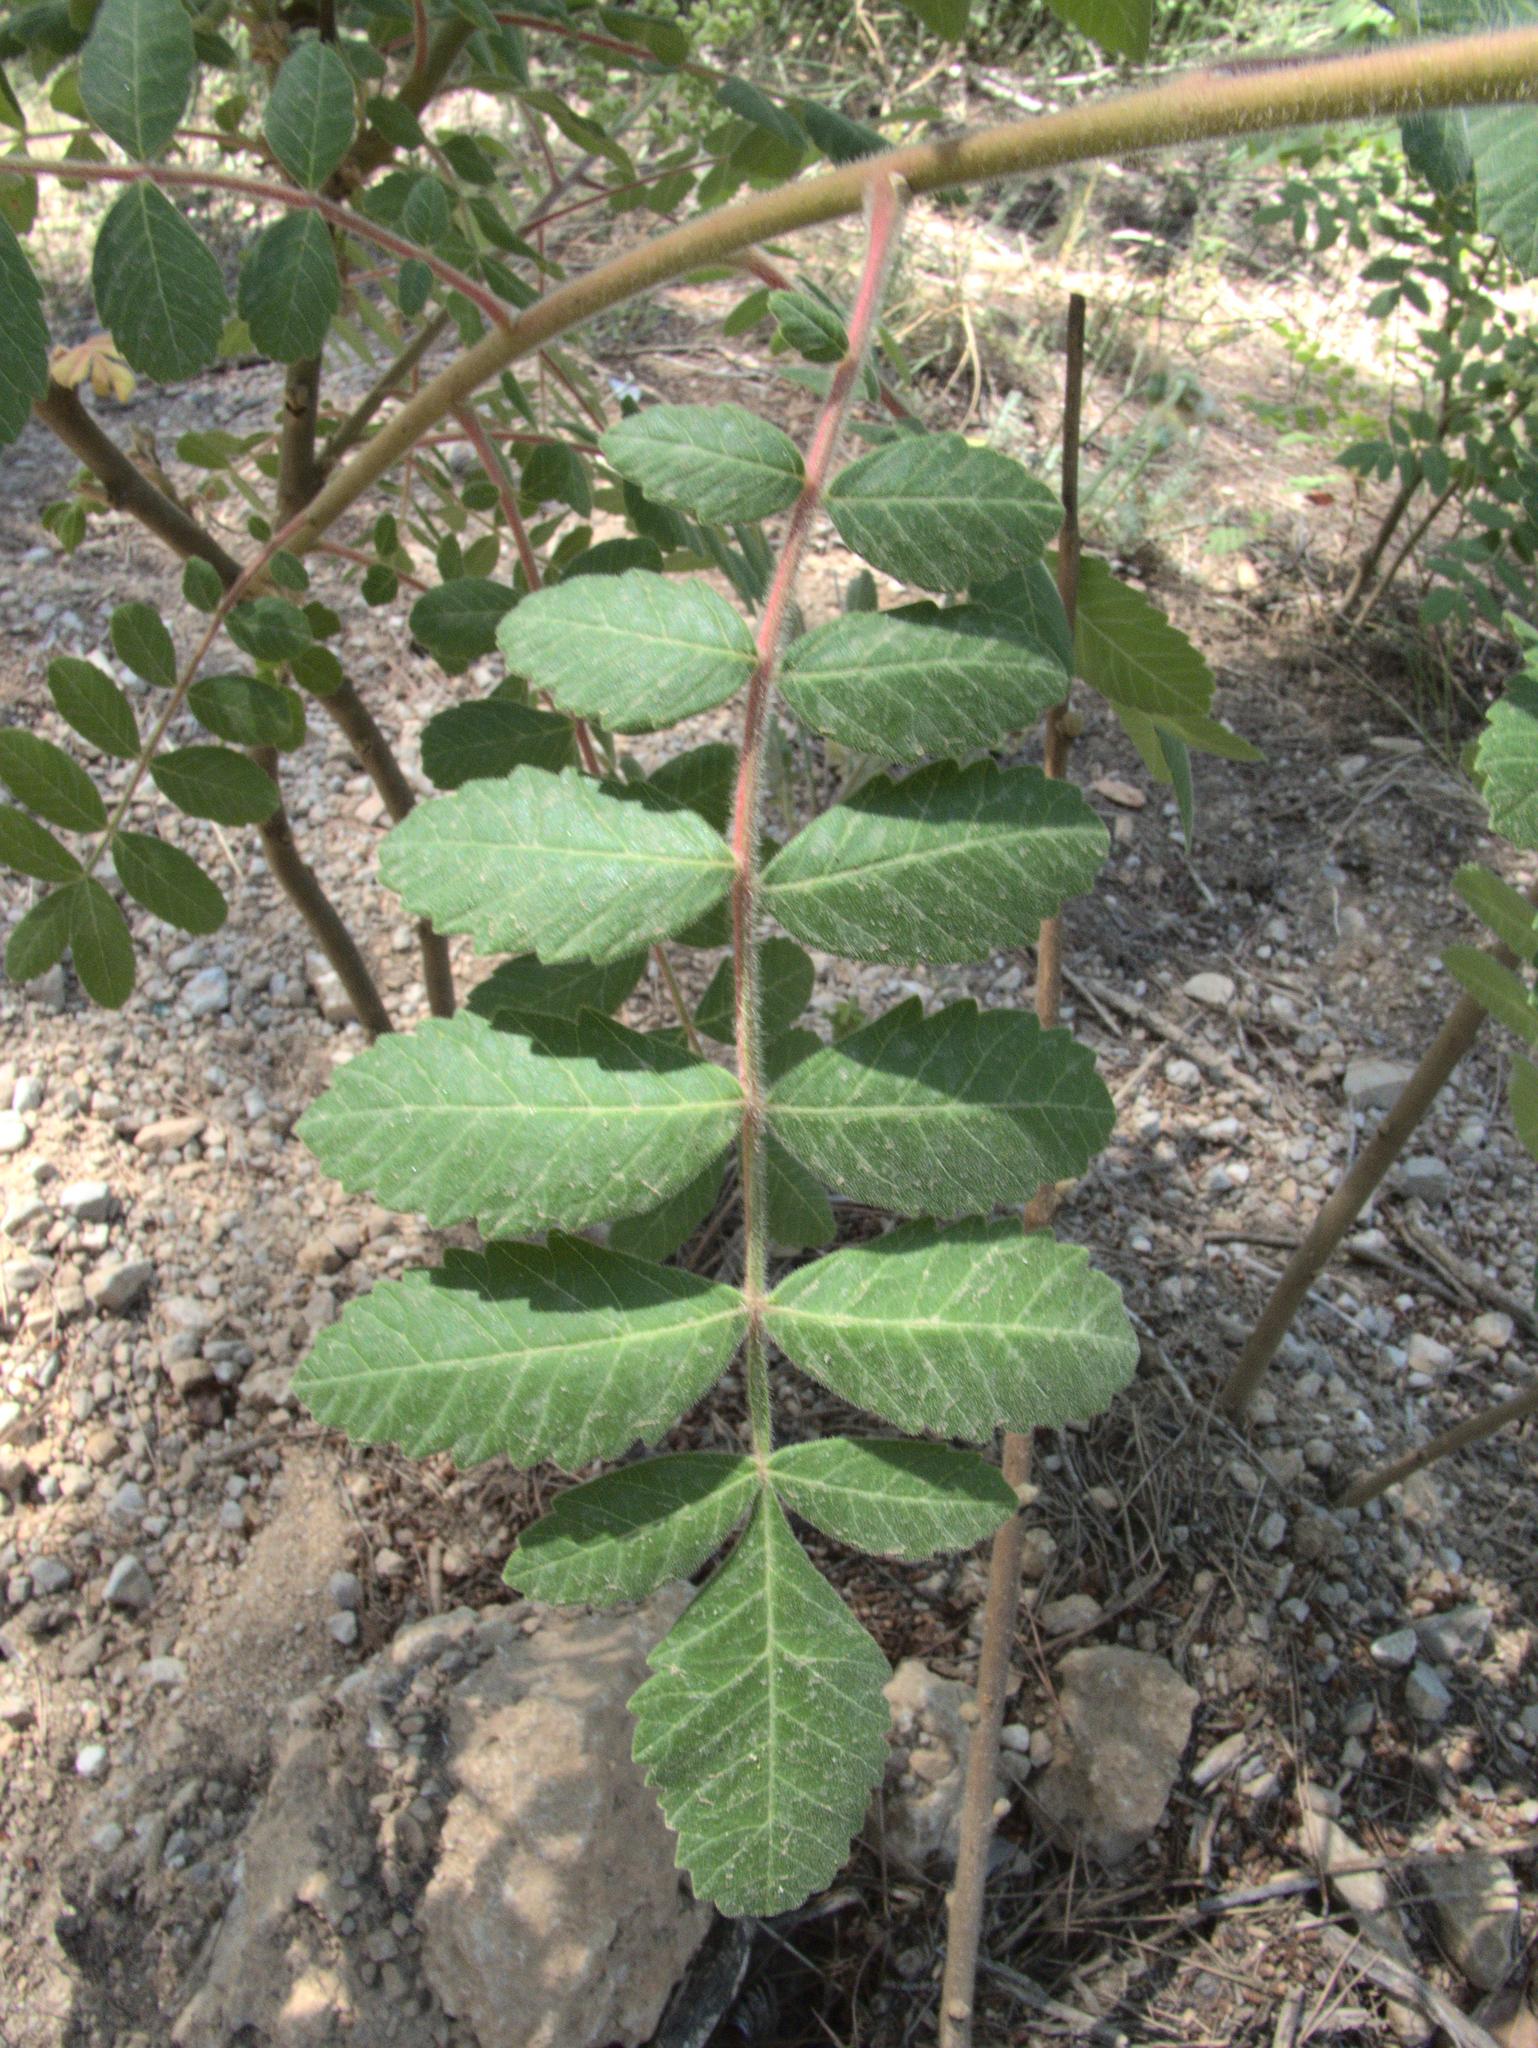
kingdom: Plantae
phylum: Tracheophyta
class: Magnoliopsida
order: Sapindales
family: Anacardiaceae
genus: Rhus
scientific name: Rhus typhina
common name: Staghorn sumac
